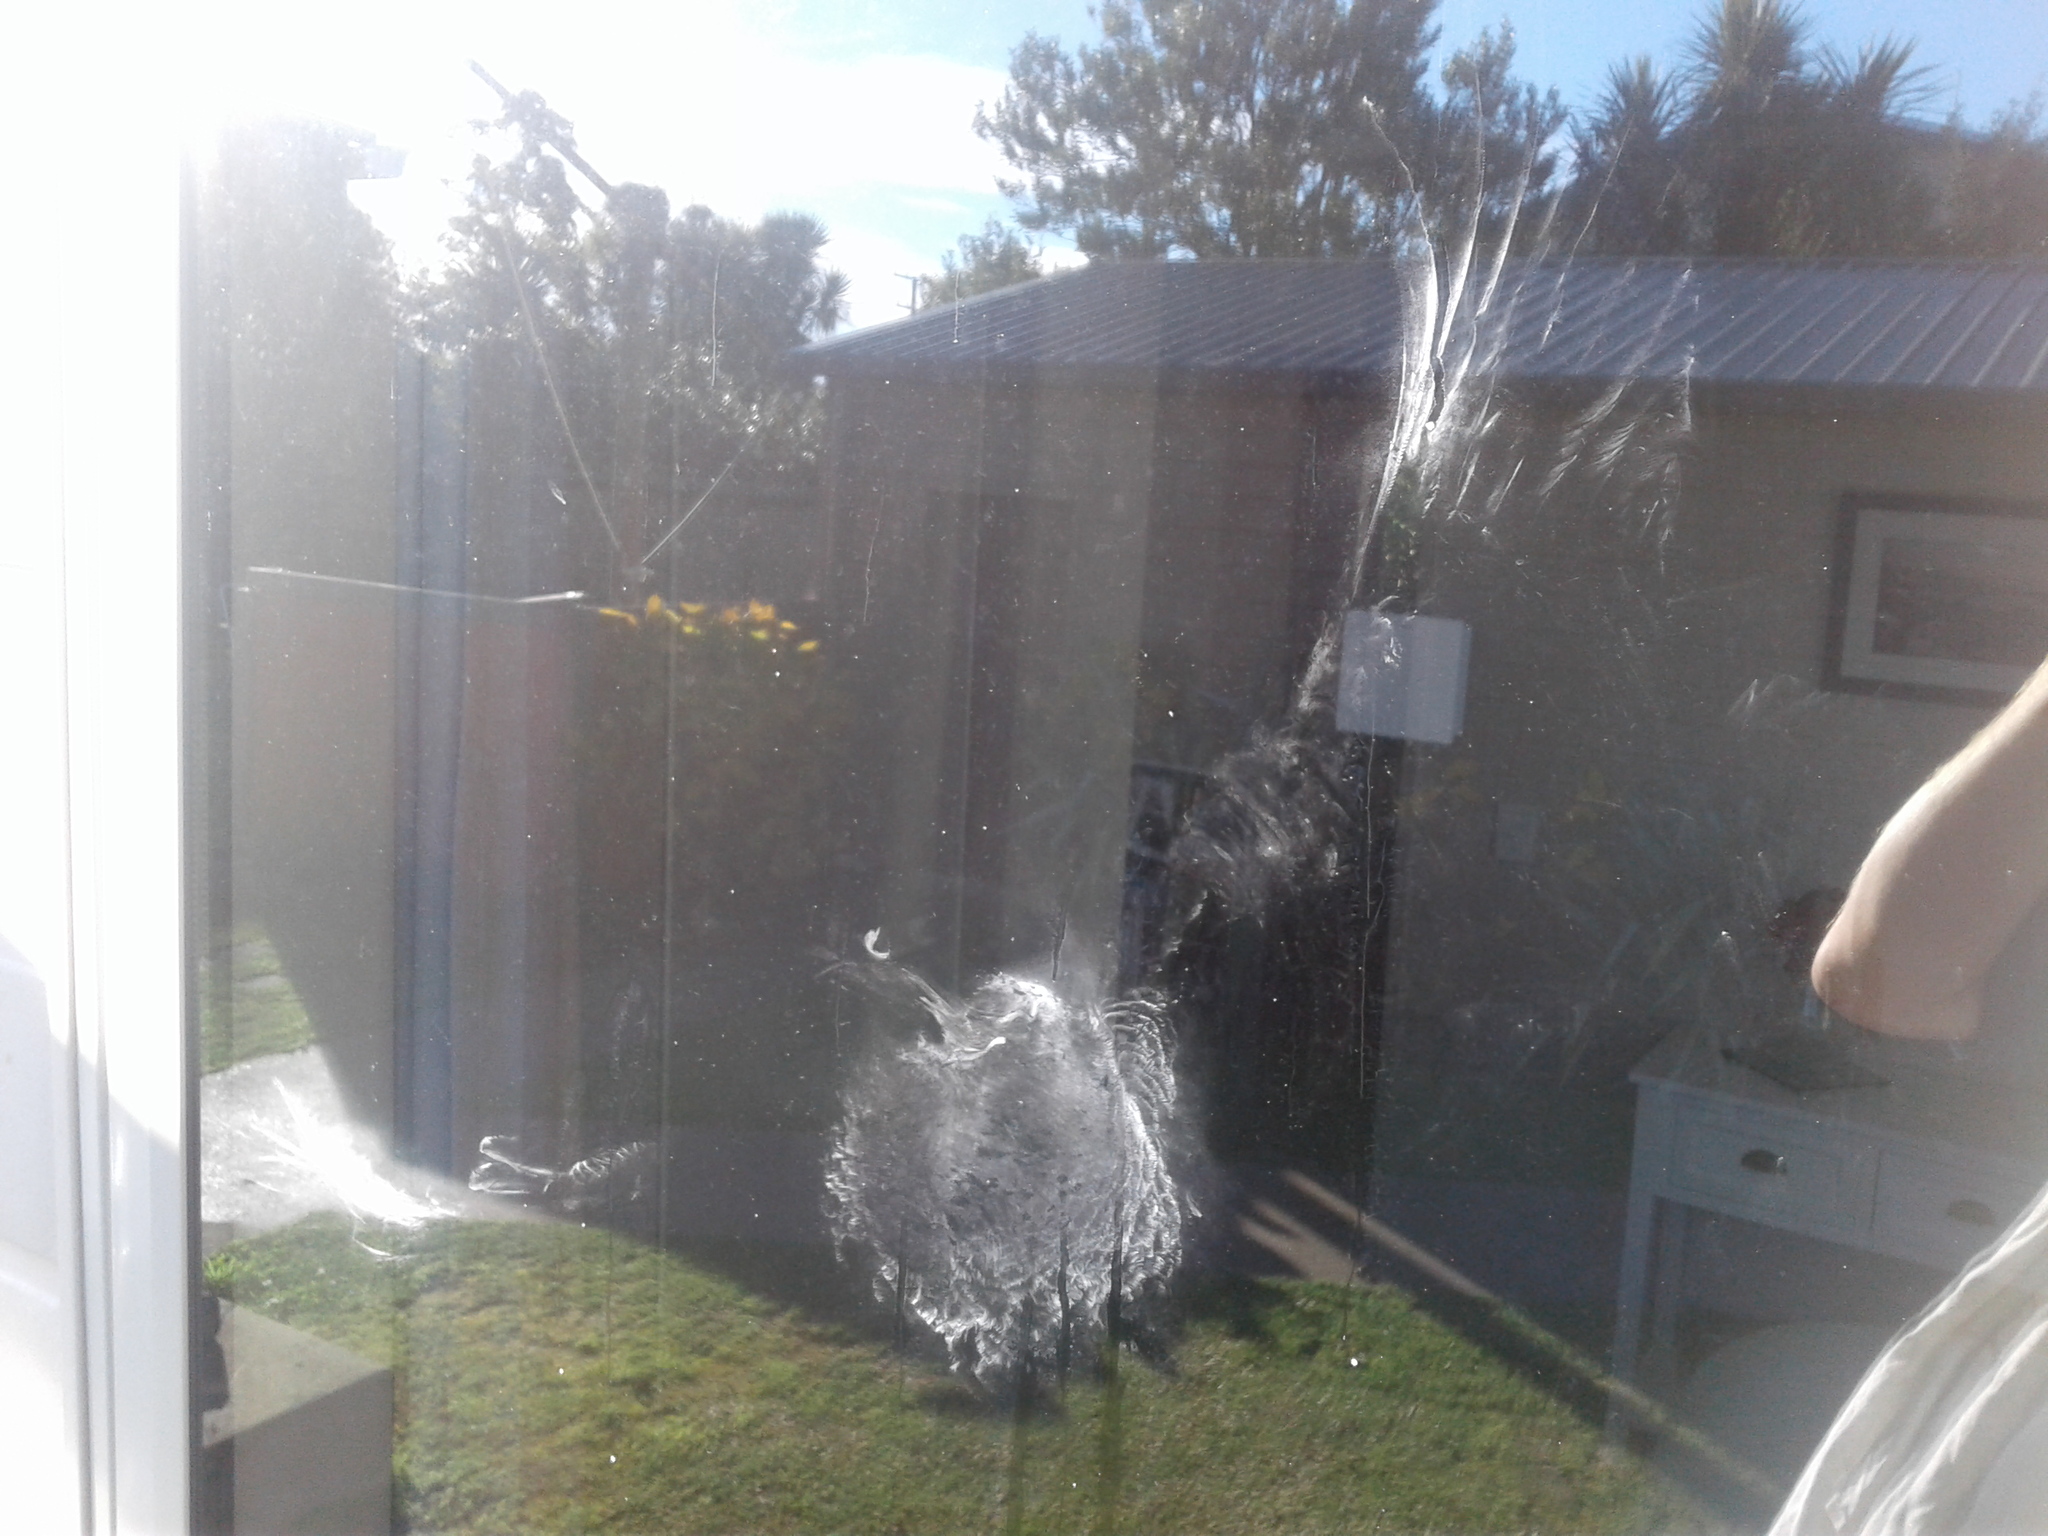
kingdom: Animalia
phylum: Chordata
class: Aves
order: Columbiformes
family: Columbidae
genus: Hemiphaga
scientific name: Hemiphaga novaeseelandiae
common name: New zealand pigeon
